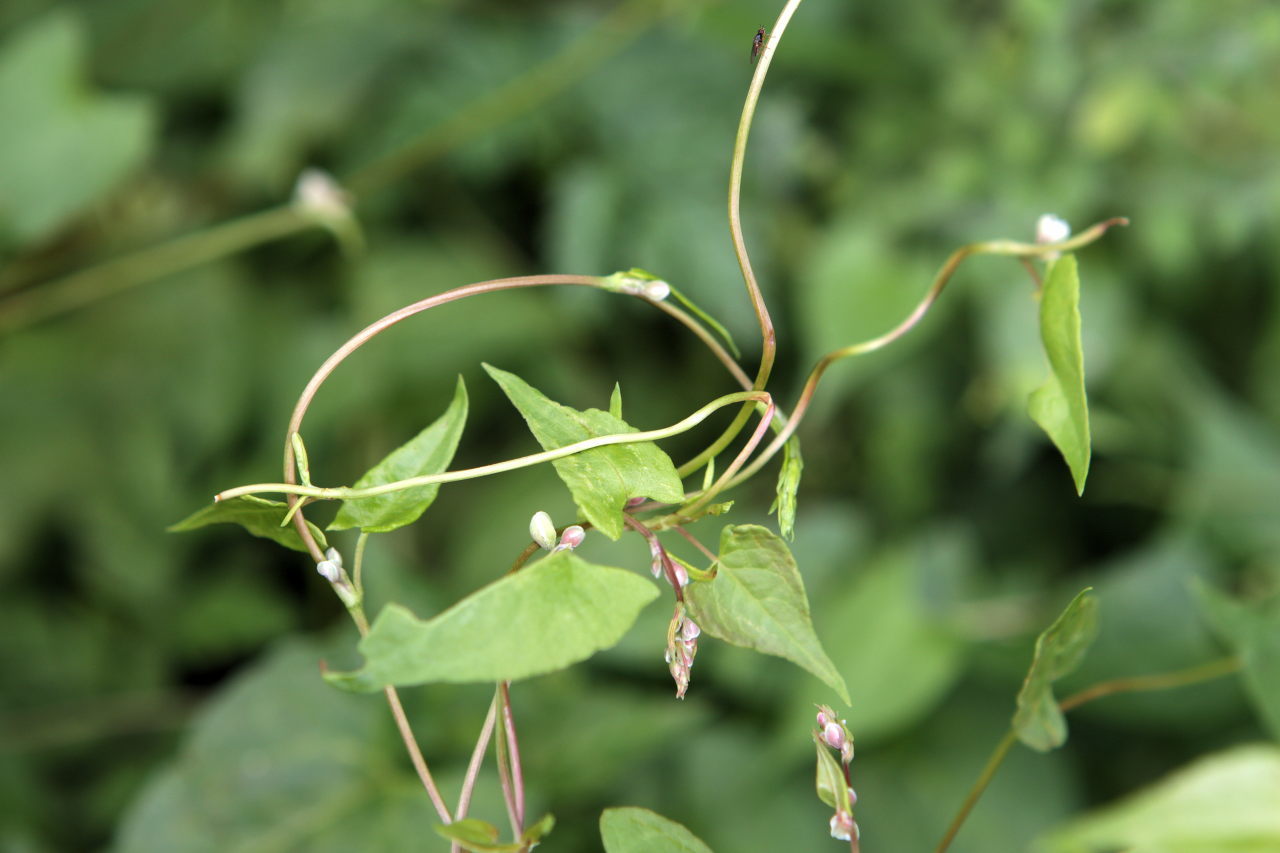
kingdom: Plantae
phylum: Tracheophyta
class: Magnoliopsida
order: Caryophyllales
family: Polygonaceae
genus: Fallopia
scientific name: Fallopia convolvulus
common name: Black bindweed
